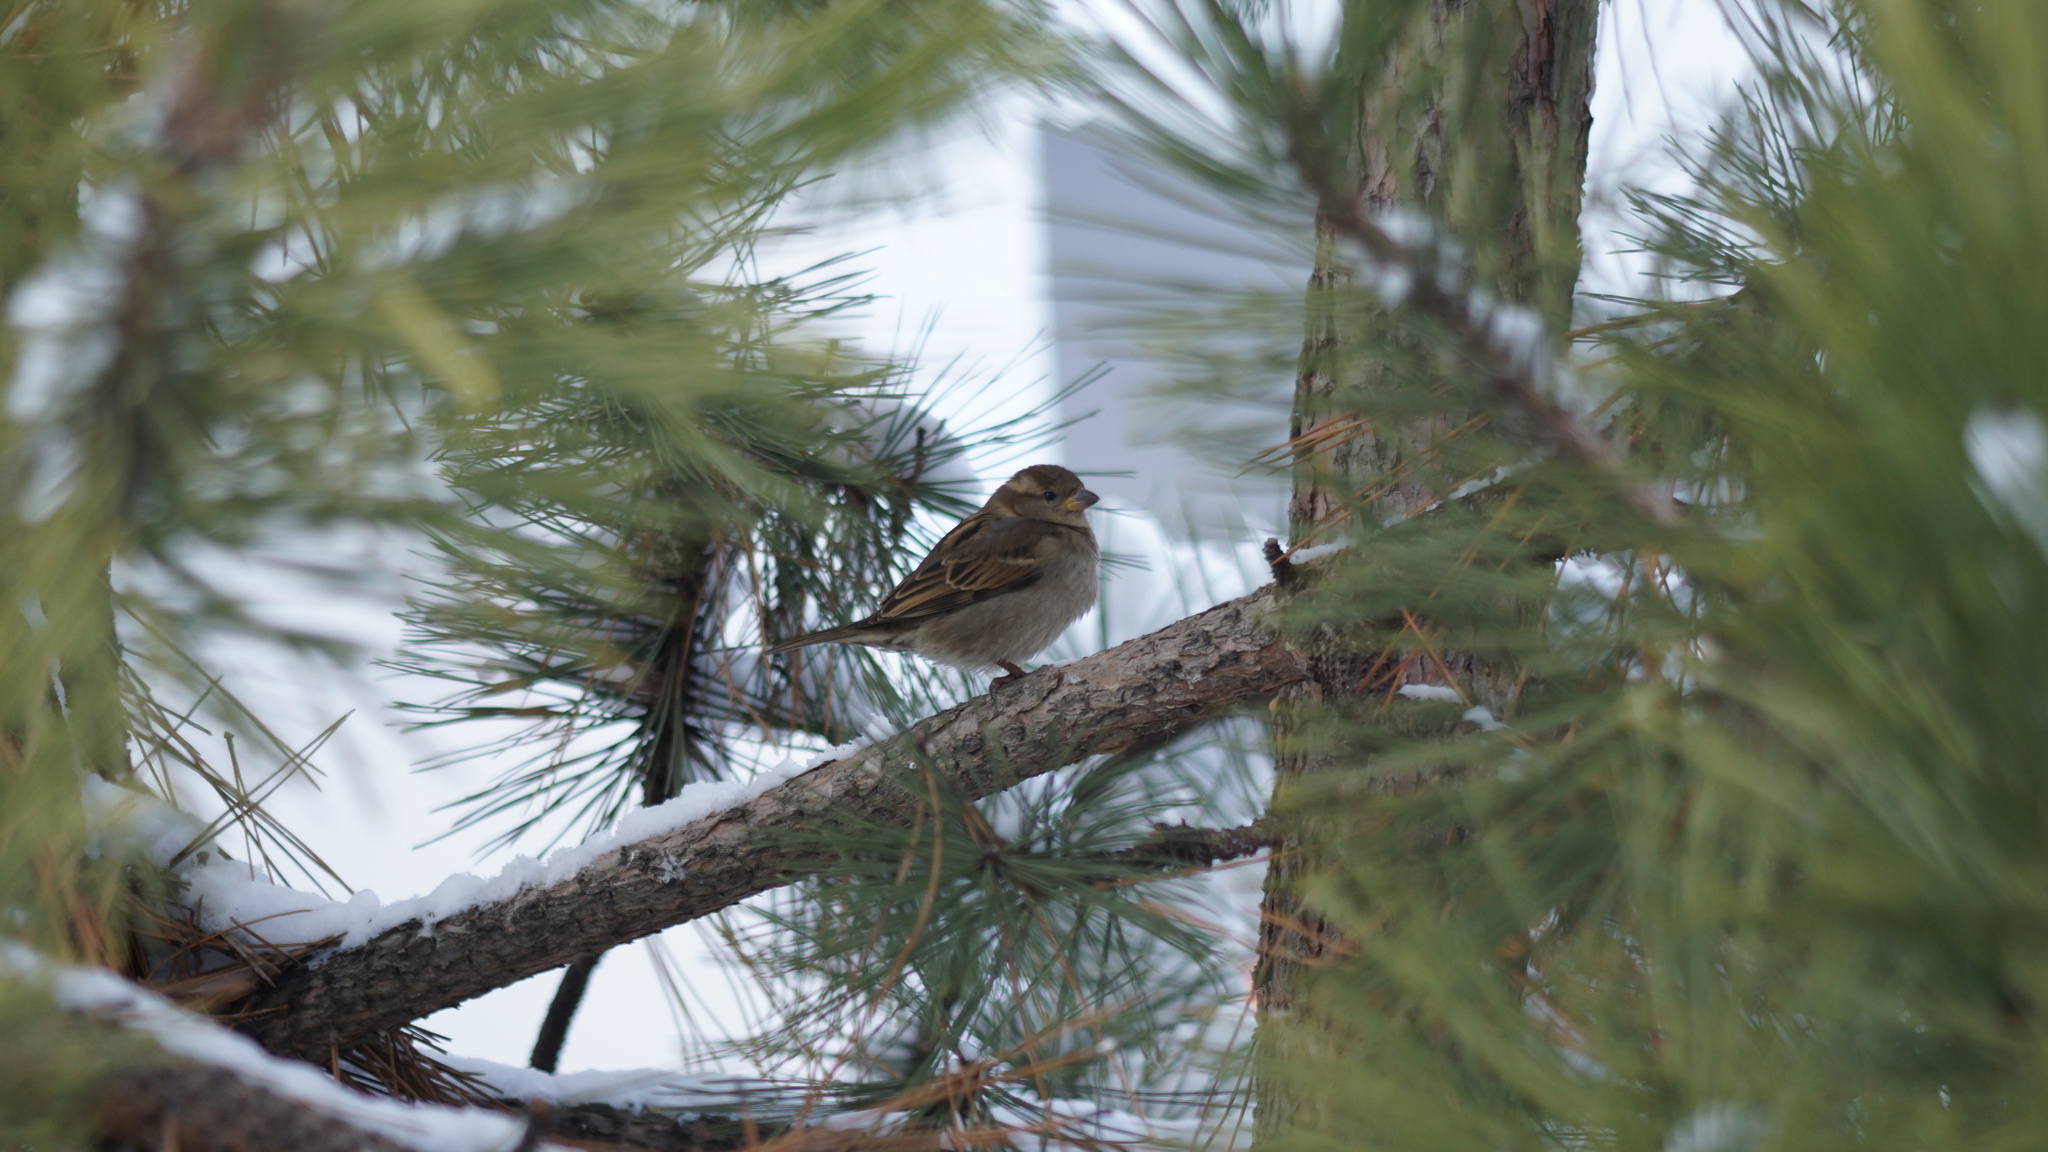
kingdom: Animalia
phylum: Chordata
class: Aves
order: Passeriformes
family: Passeridae
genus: Passer
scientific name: Passer domesticus
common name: House sparrow
